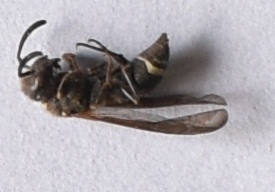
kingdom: Animalia
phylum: Arthropoda
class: Insecta
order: Hymenoptera
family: Vespidae
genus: Ancistrocerus
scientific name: Ancistrocerus
